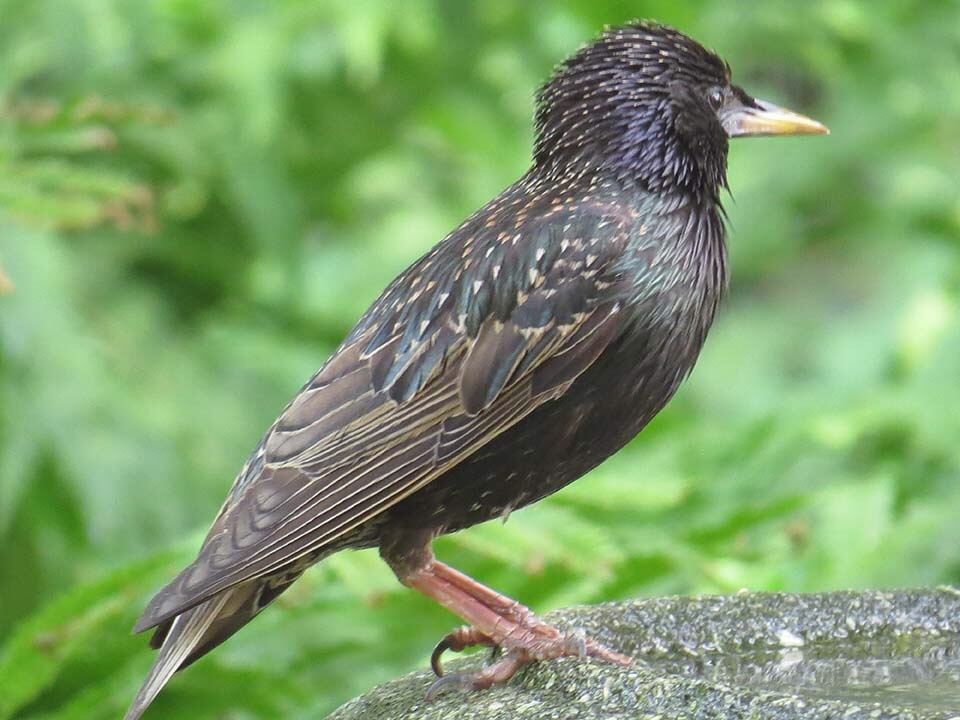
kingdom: Animalia
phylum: Chordata
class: Aves
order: Passeriformes
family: Sturnidae
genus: Sturnus
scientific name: Sturnus vulgaris
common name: Common starling
